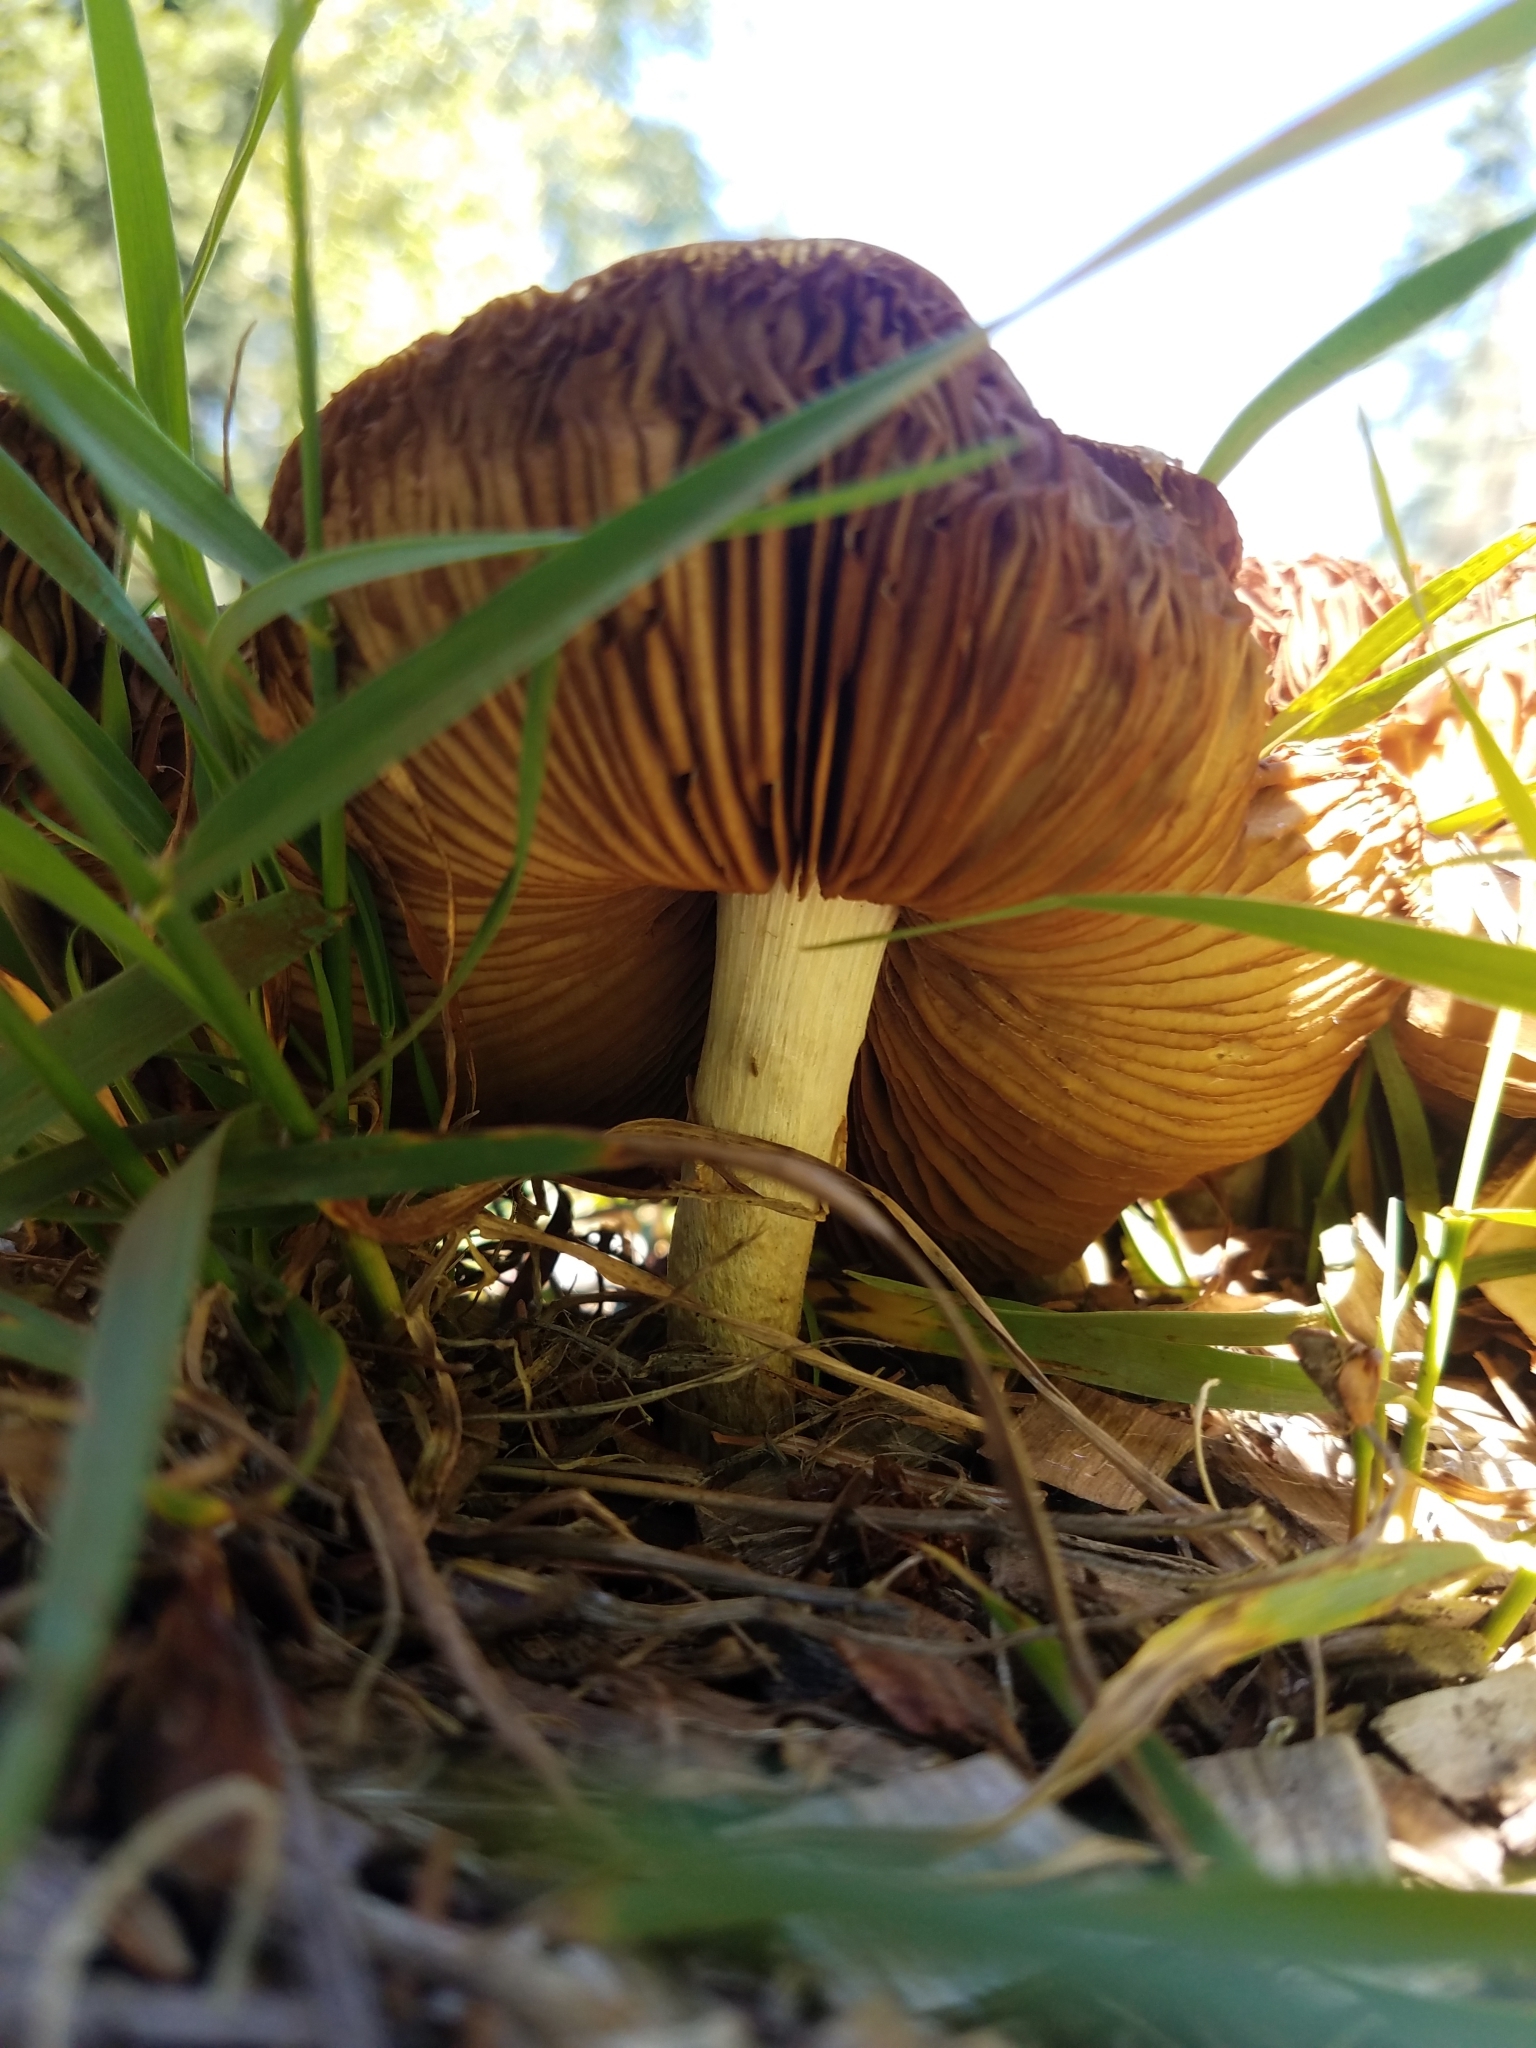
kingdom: Fungi
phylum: Basidiomycota
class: Agaricomycetes
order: Agaricales
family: Strophariaceae
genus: Agrocybe
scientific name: Agrocybe praecox
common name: Spring fieldcap
